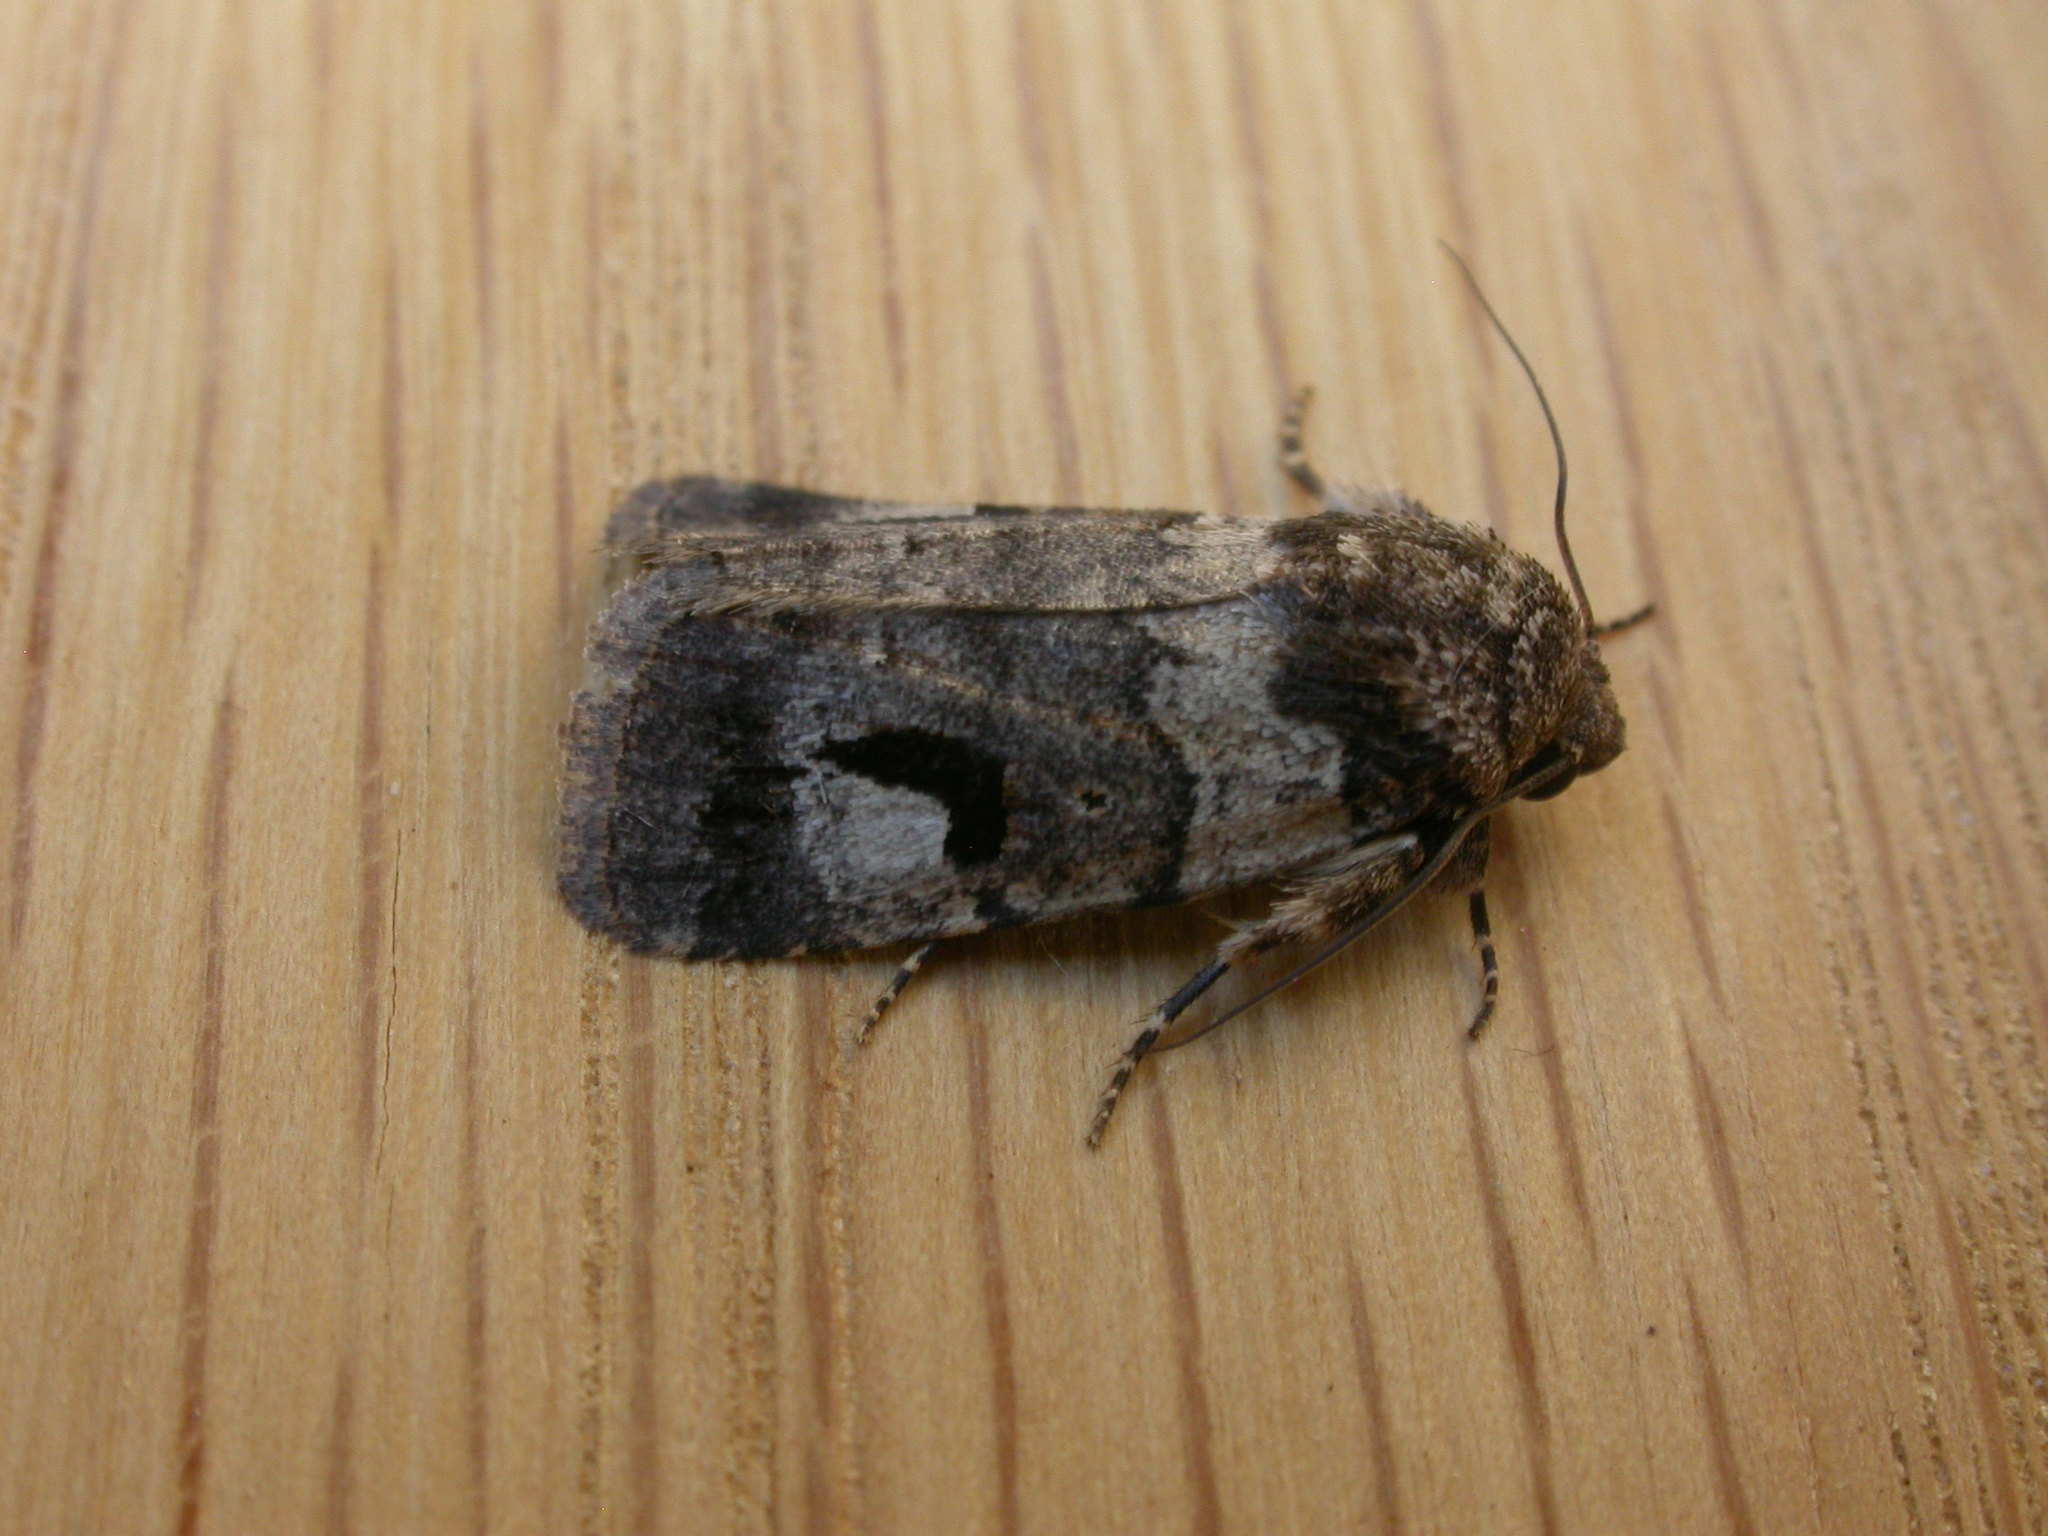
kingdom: Animalia
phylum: Arthropoda
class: Insecta
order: Lepidoptera
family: Noctuidae
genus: Thoracolopha
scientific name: Thoracolopha flexirena
